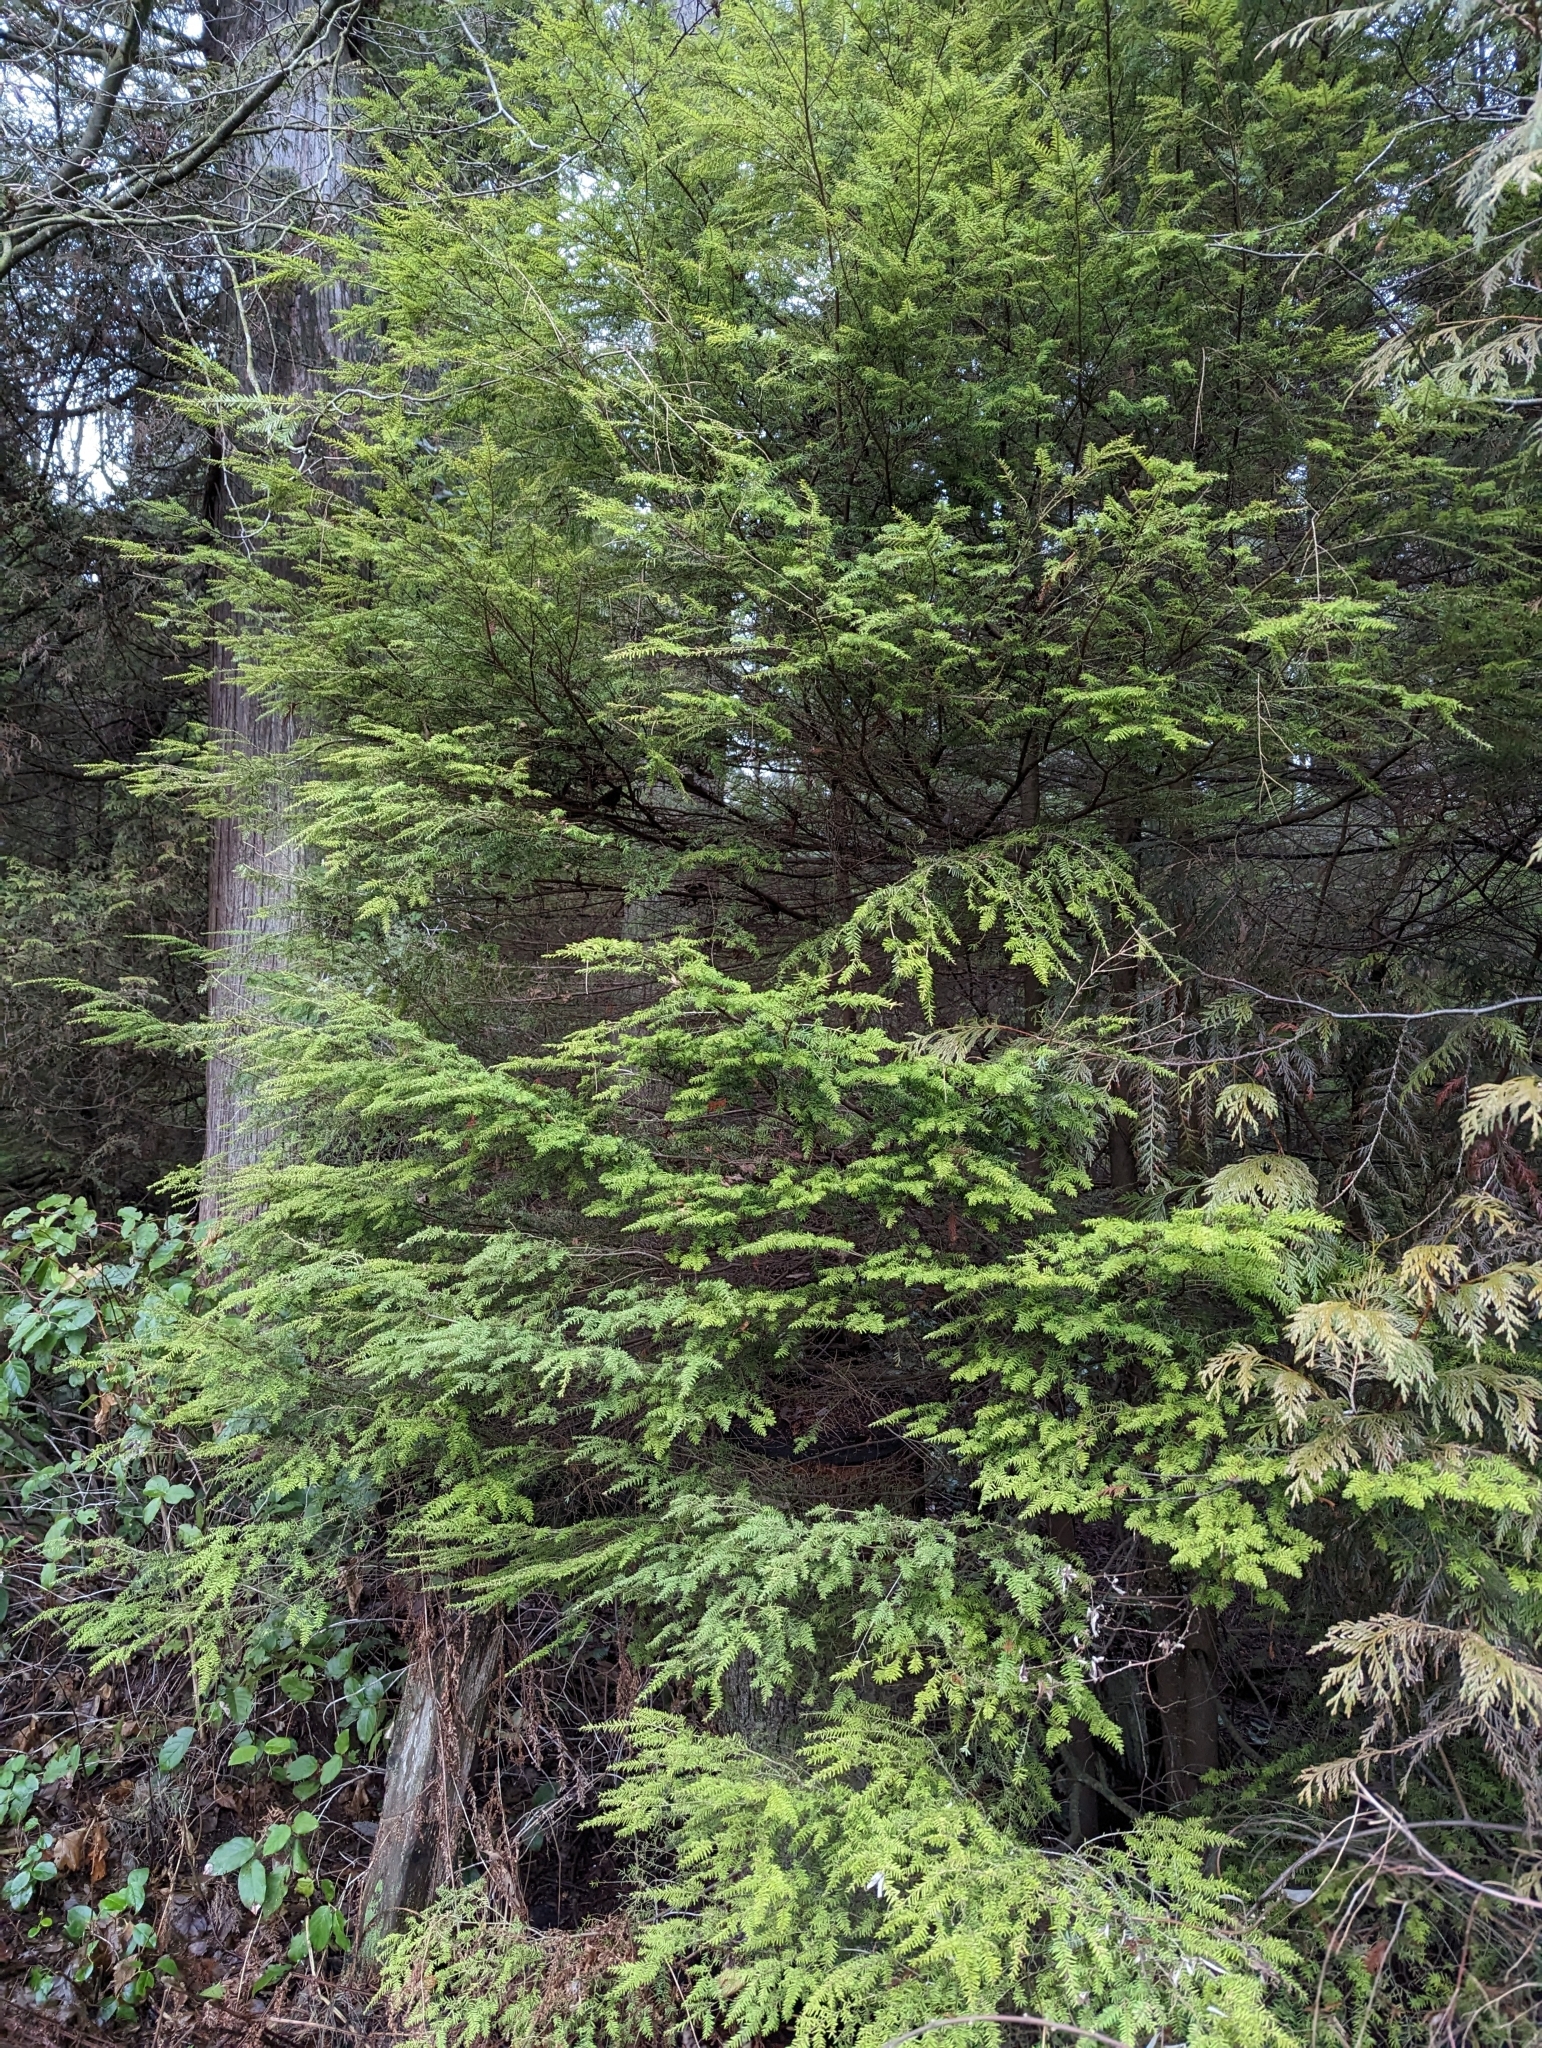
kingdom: Plantae
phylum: Tracheophyta
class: Pinopsida
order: Pinales
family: Pinaceae
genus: Tsuga
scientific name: Tsuga heterophylla
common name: Western hemlock
